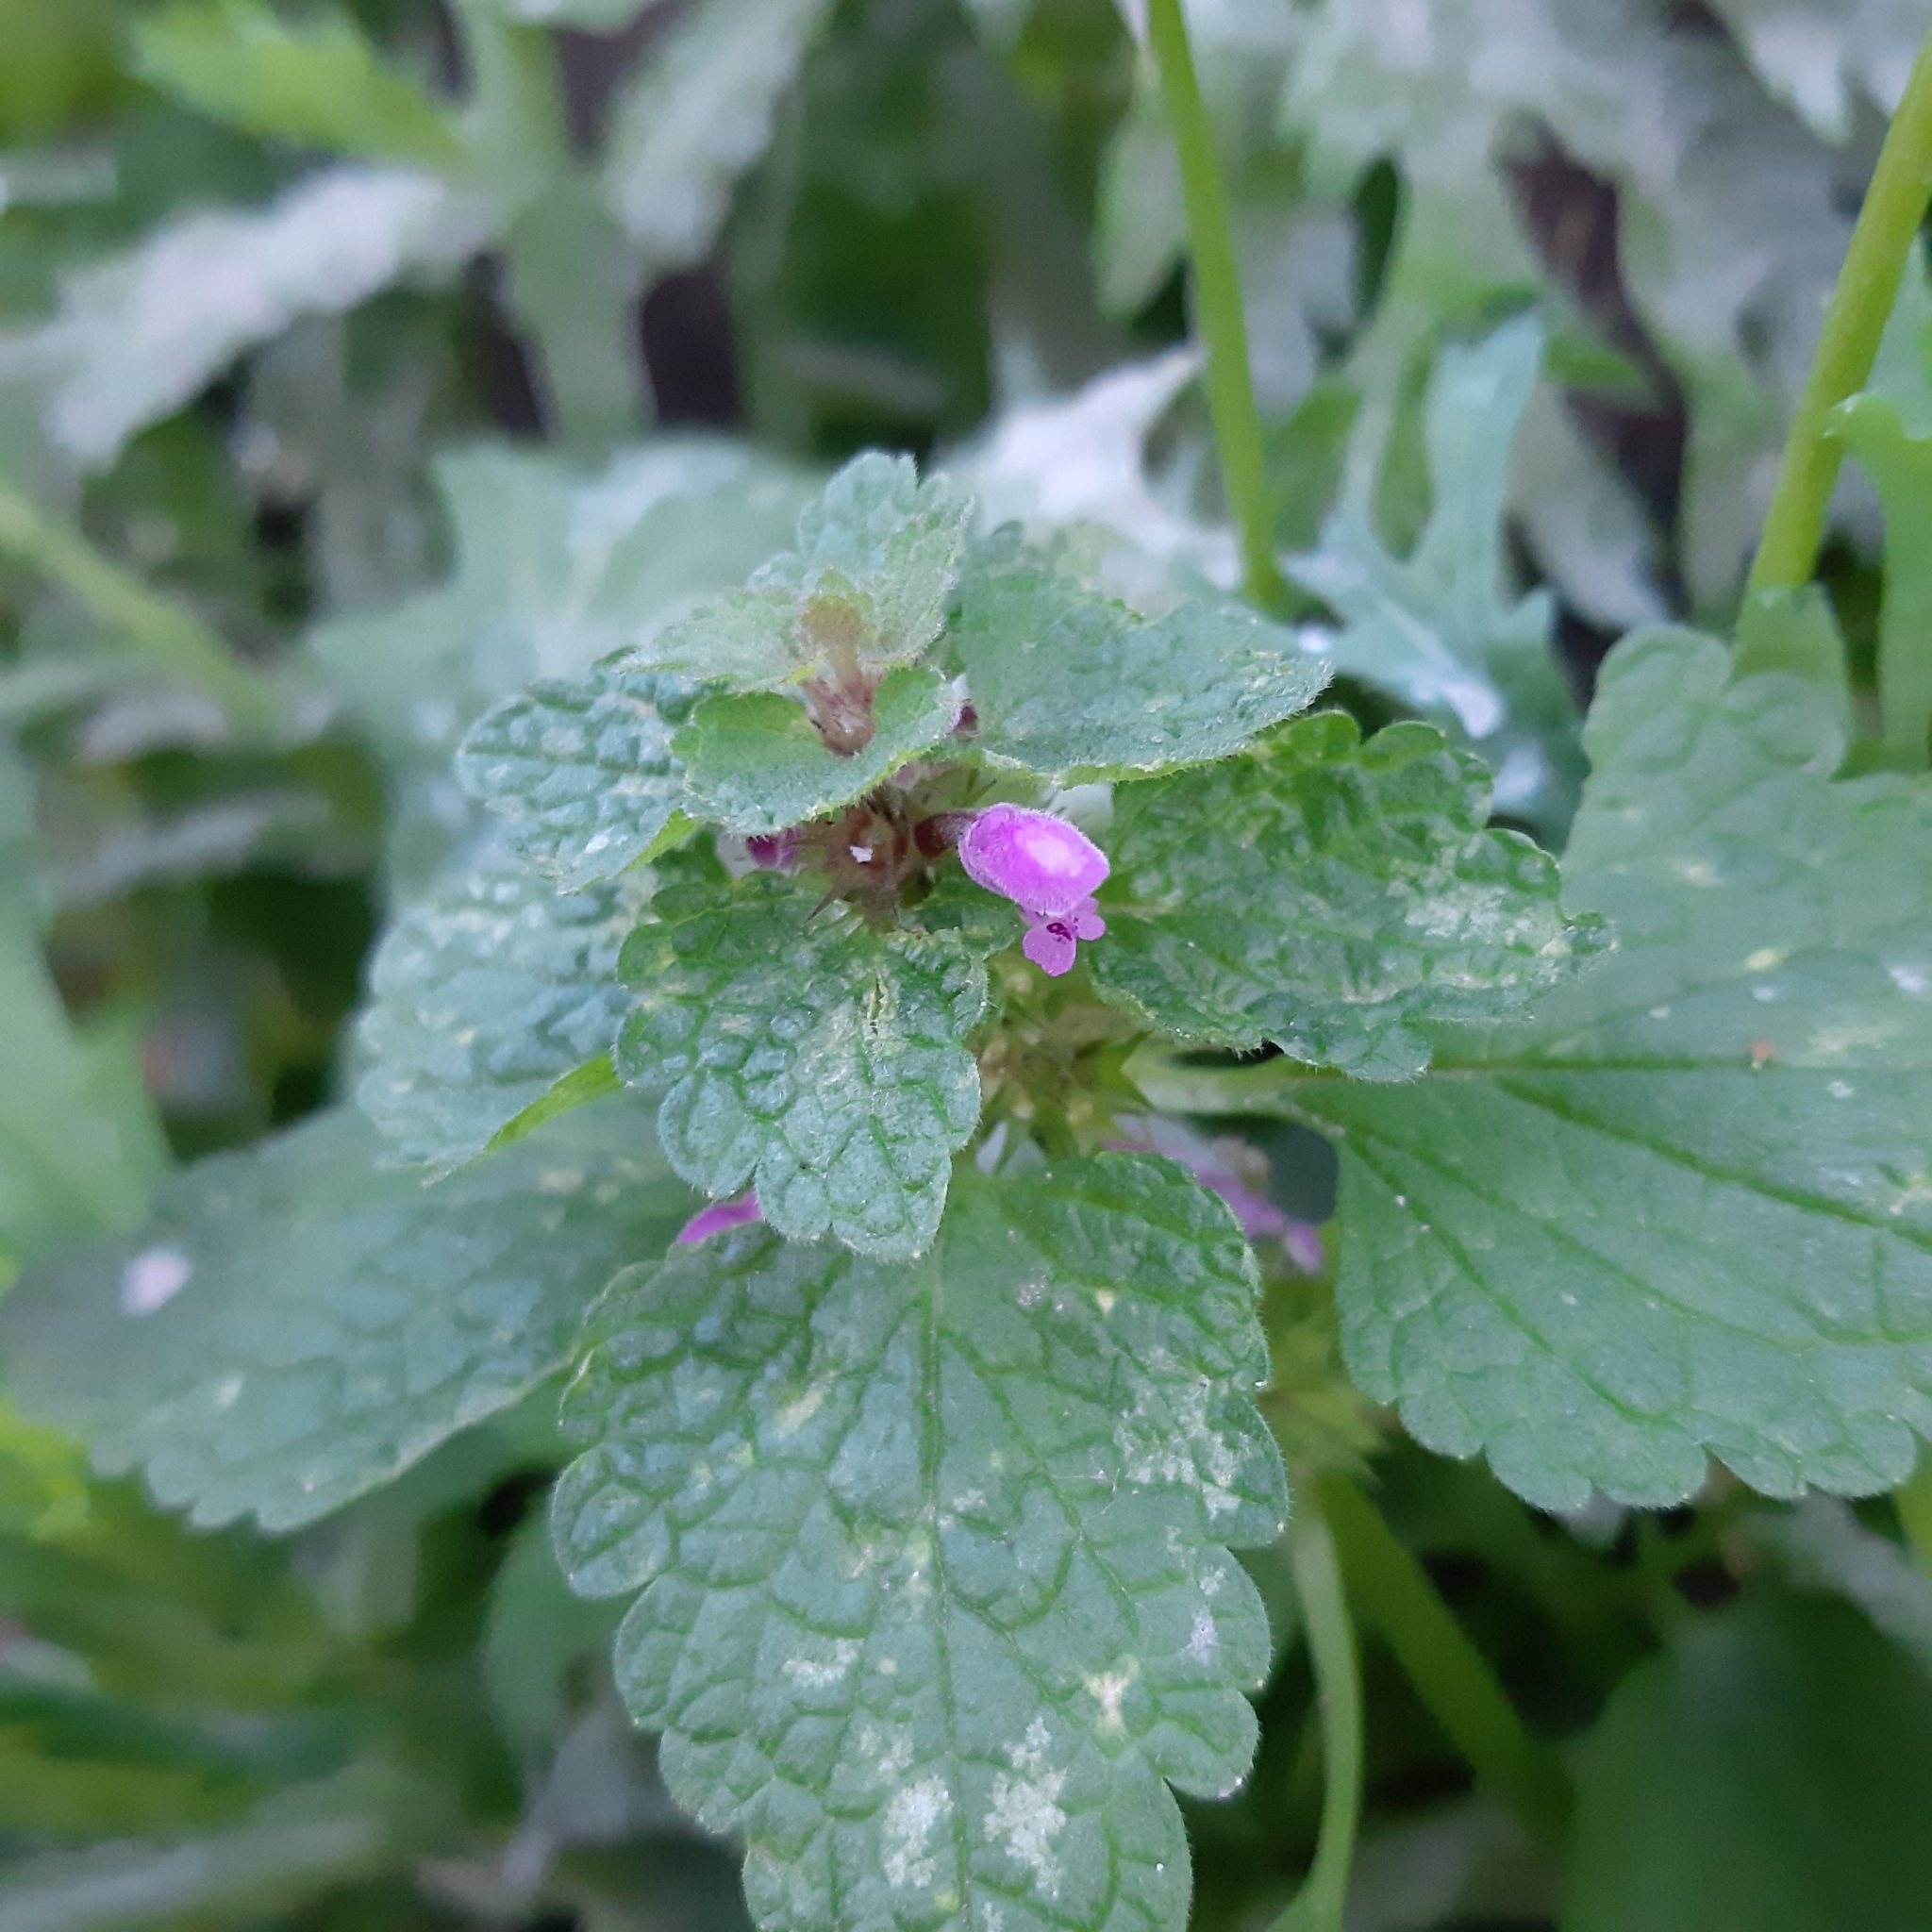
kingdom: Plantae
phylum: Tracheophyta
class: Magnoliopsida
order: Lamiales
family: Lamiaceae
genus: Lamium
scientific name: Lamium purpureum
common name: Red dead-nettle
